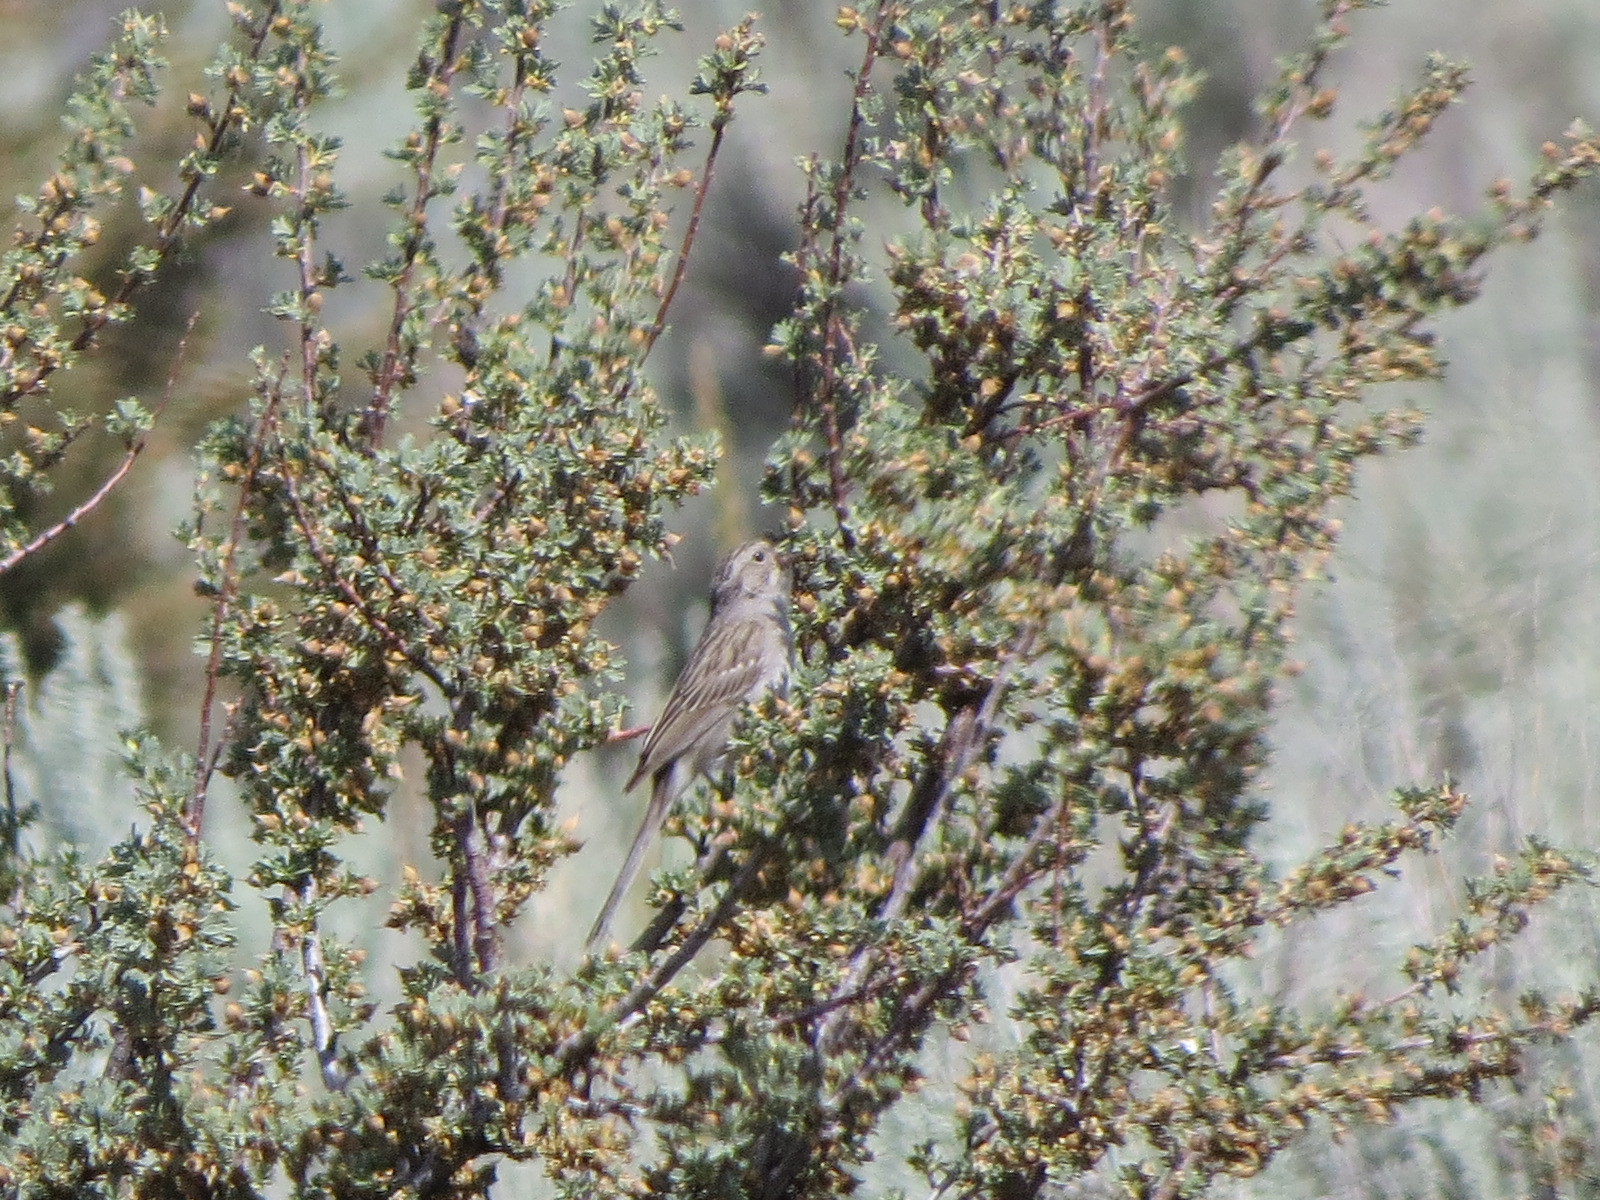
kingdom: Animalia
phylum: Chordata
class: Aves
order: Passeriformes
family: Passerellidae
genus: Spizella
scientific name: Spizella breweri
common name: Brewer's sparrow
